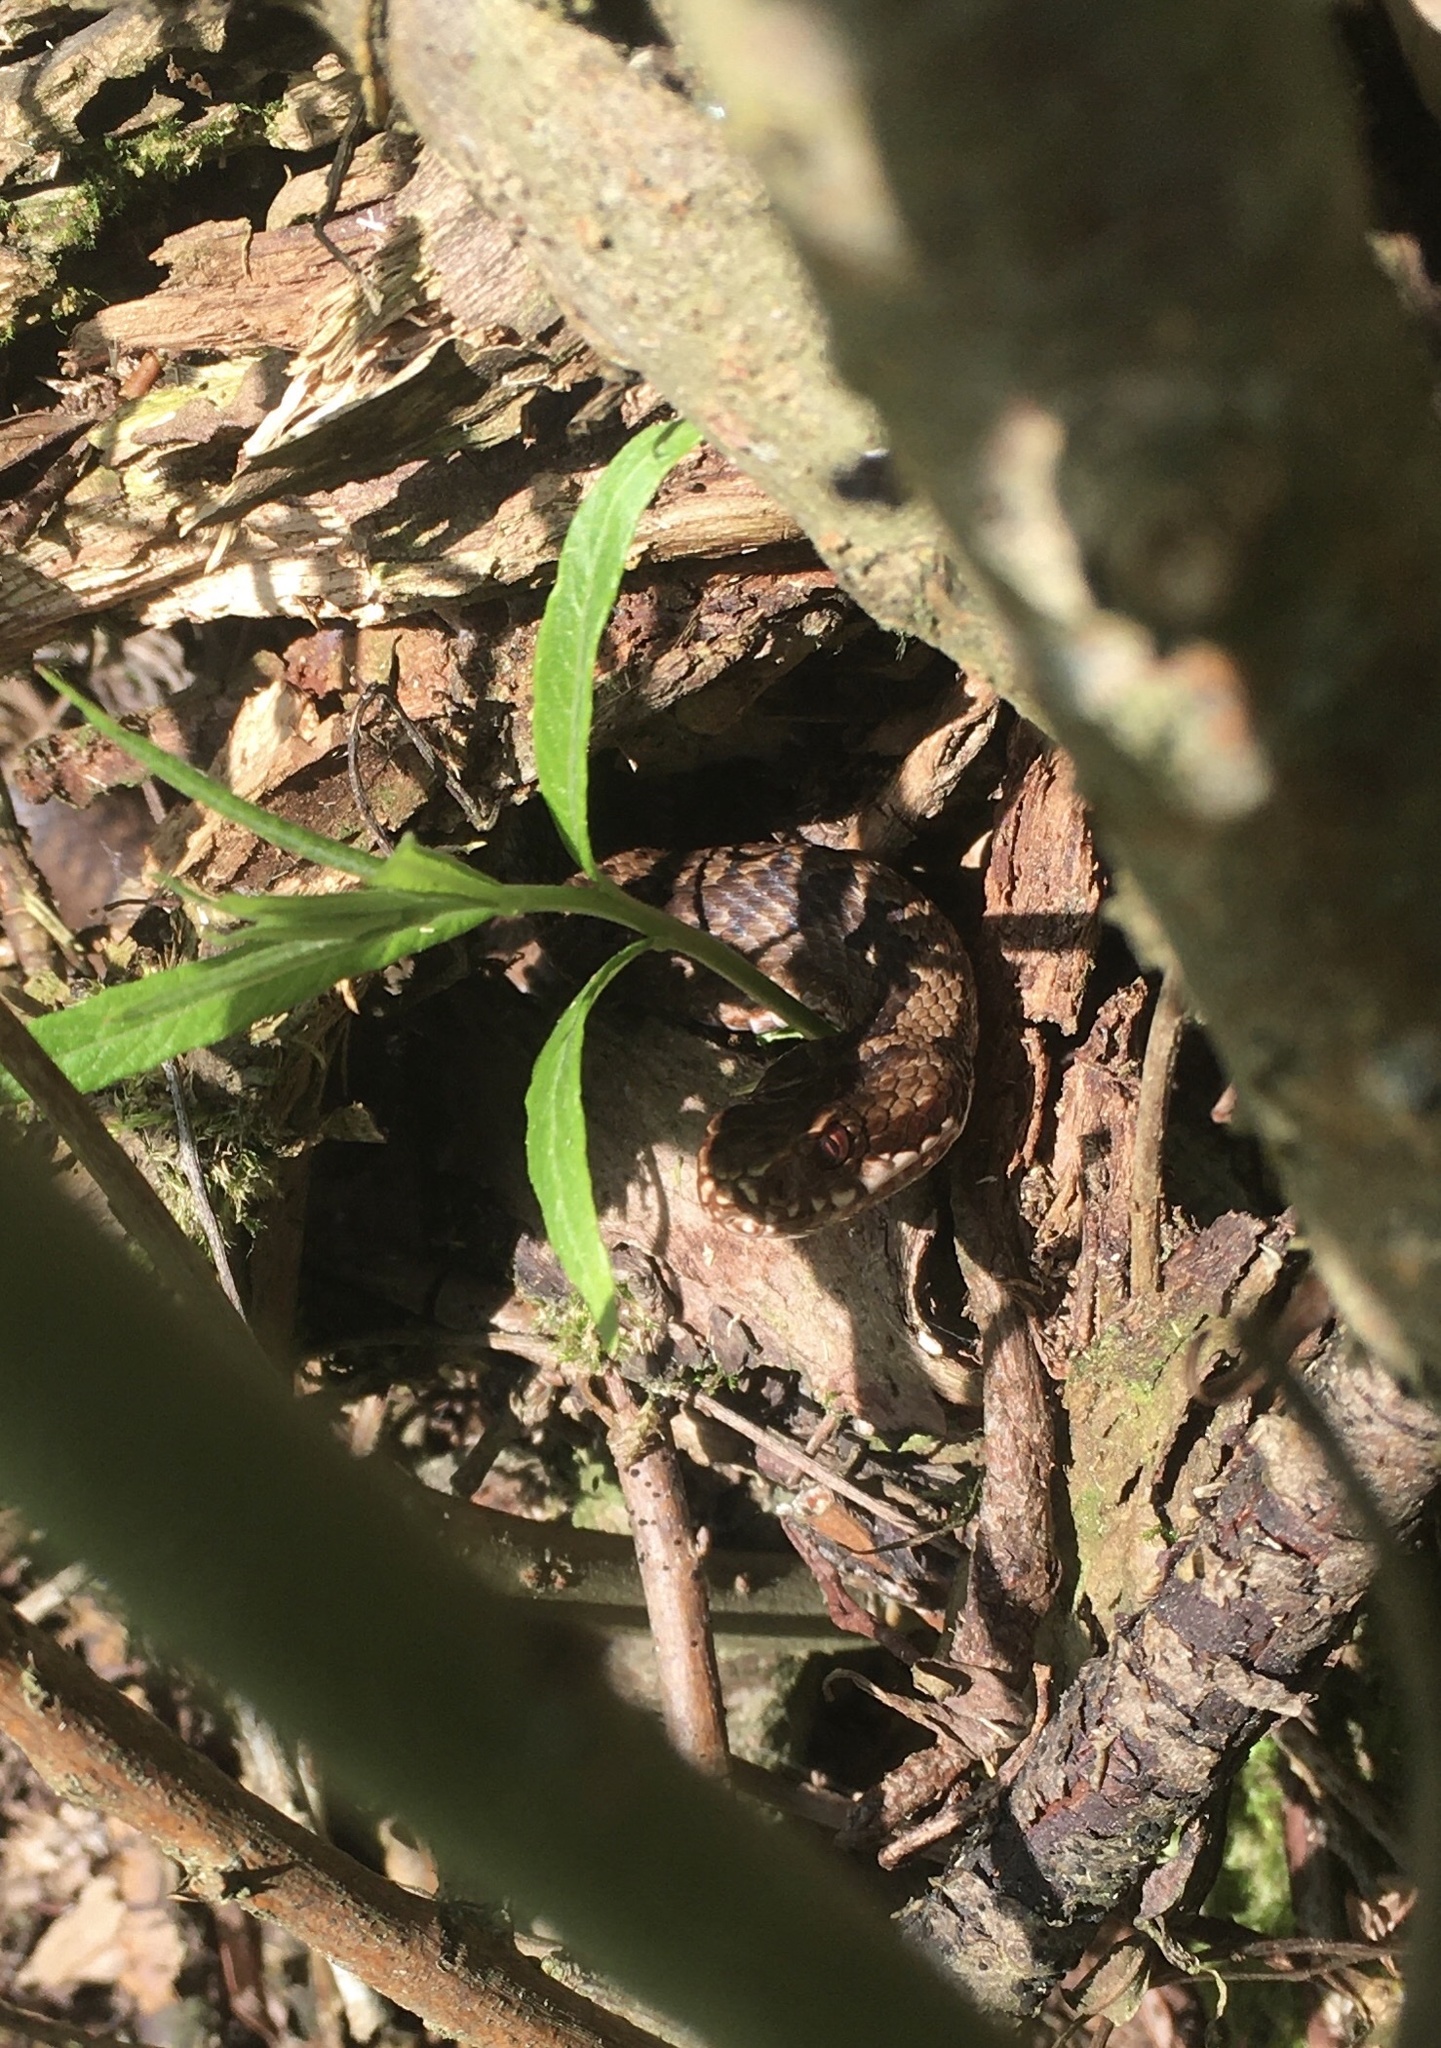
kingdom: Animalia
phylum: Chordata
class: Squamata
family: Viperidae
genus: Vipera
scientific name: Vipera berus
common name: Adder
